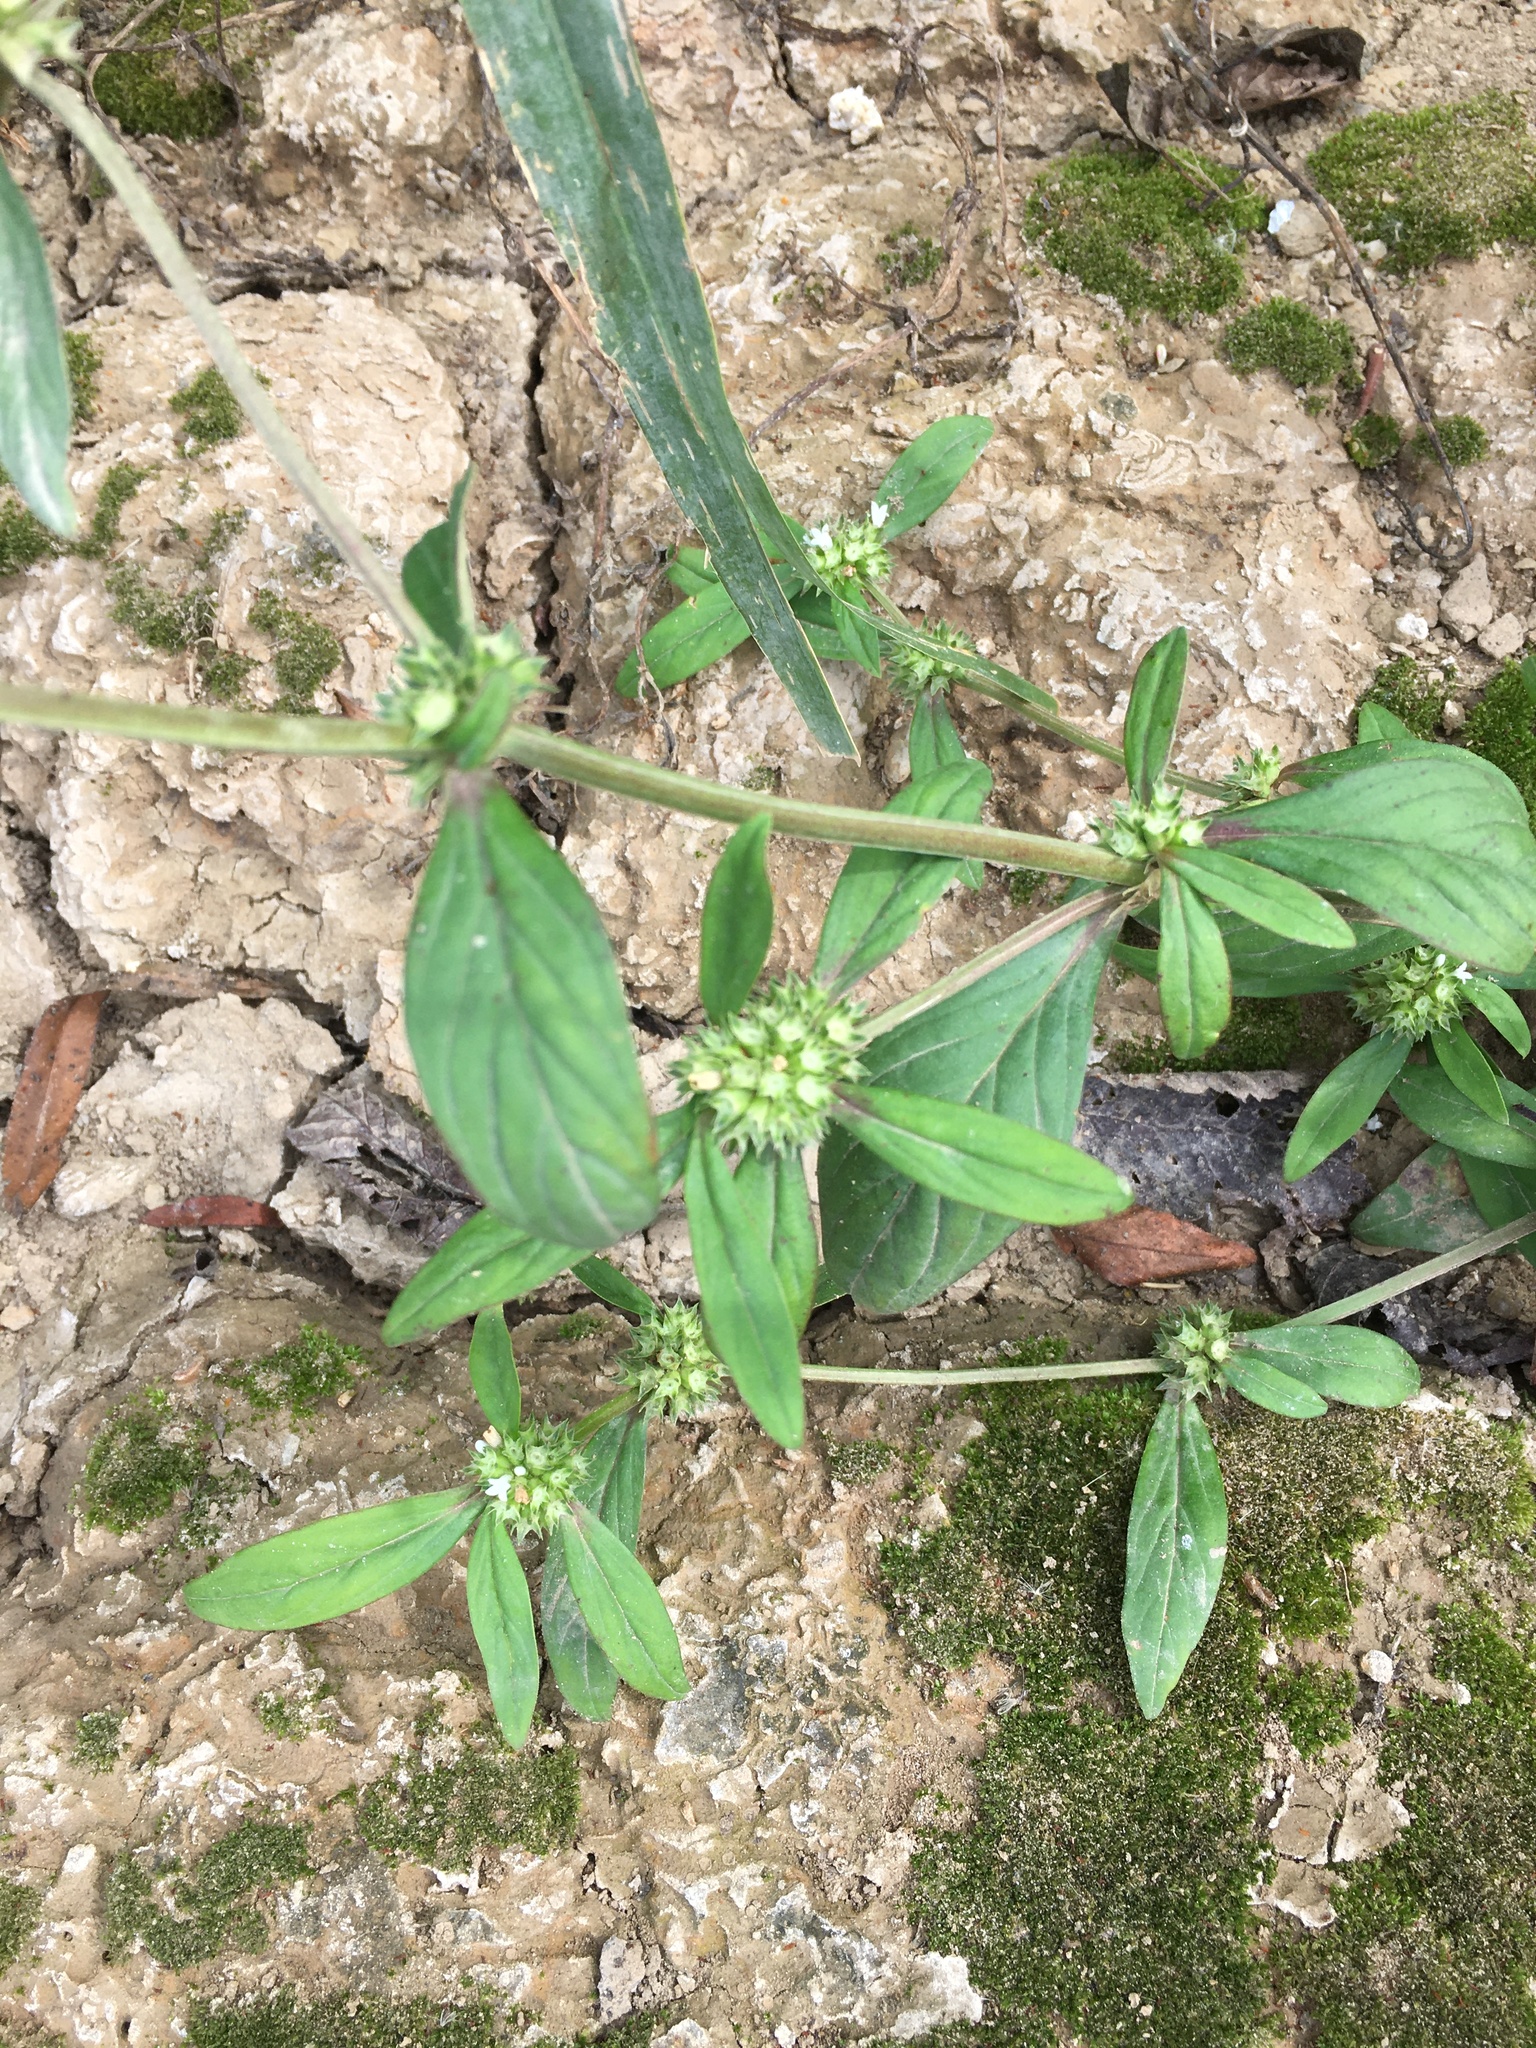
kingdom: Plantae
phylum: Tracheophyta
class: Magnoliopsida
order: Gentianales
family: Rubiaceae
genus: Spermacoce
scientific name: Spermacoce glabra
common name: Smooth buttonweed
